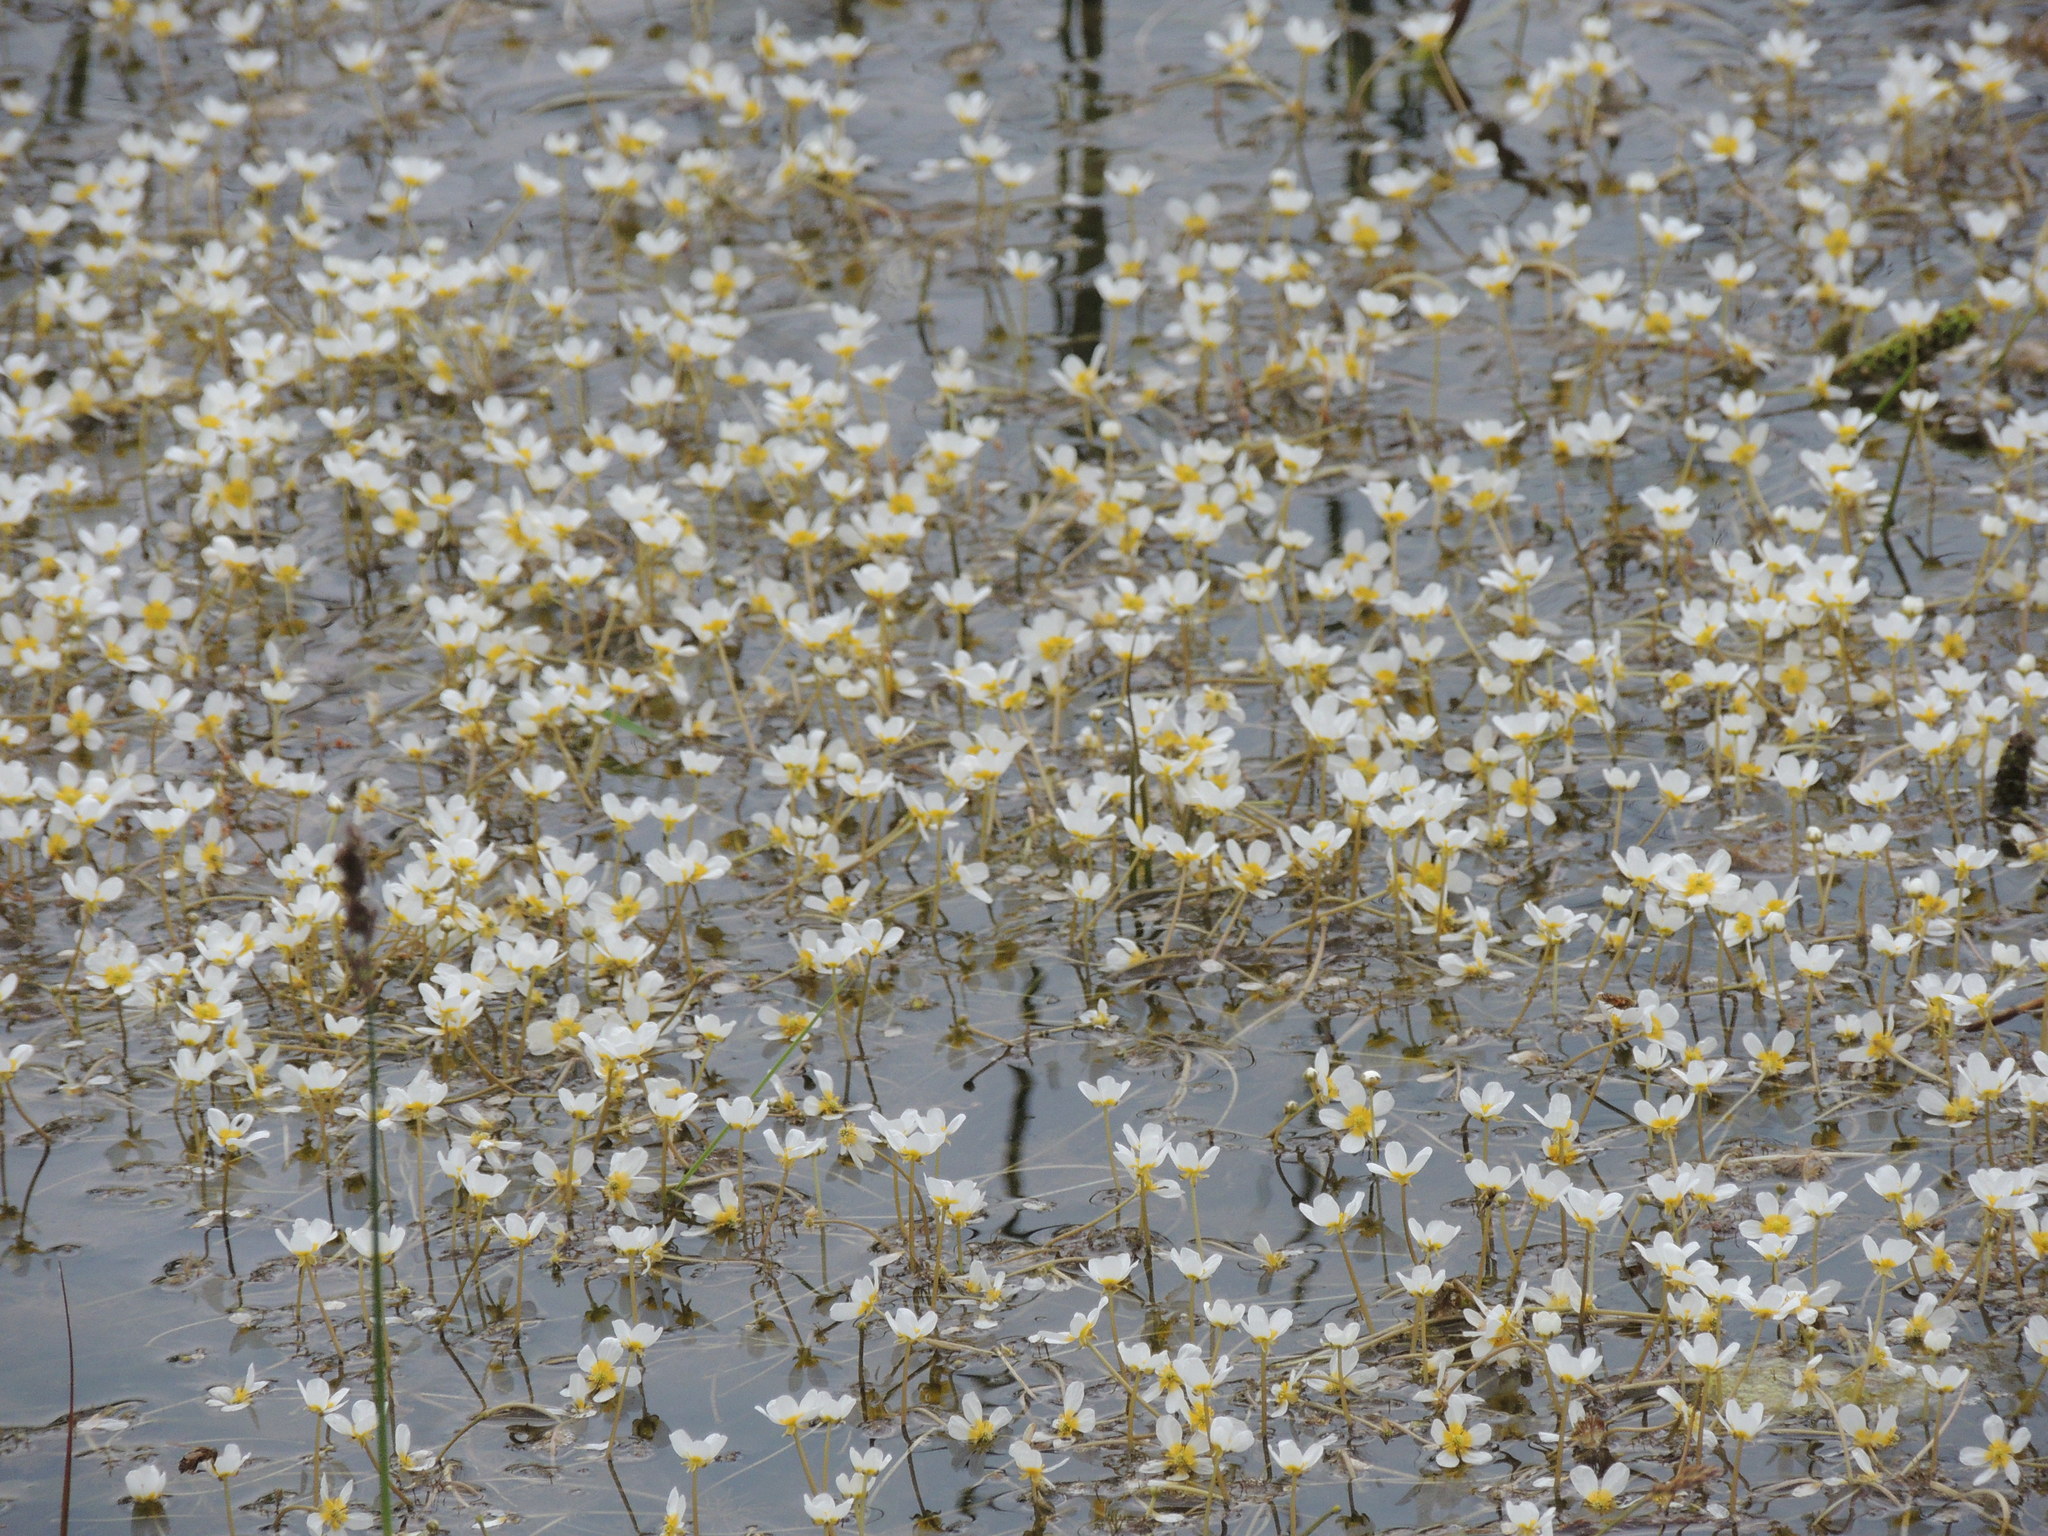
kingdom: Plantae
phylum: Tracheophyta
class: Magnoliopsida
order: Ranunculales
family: Ranunculaceae
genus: Ranunculus
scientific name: Ranunculus trichophyllus
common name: Thread-leaved water-crowfoot
